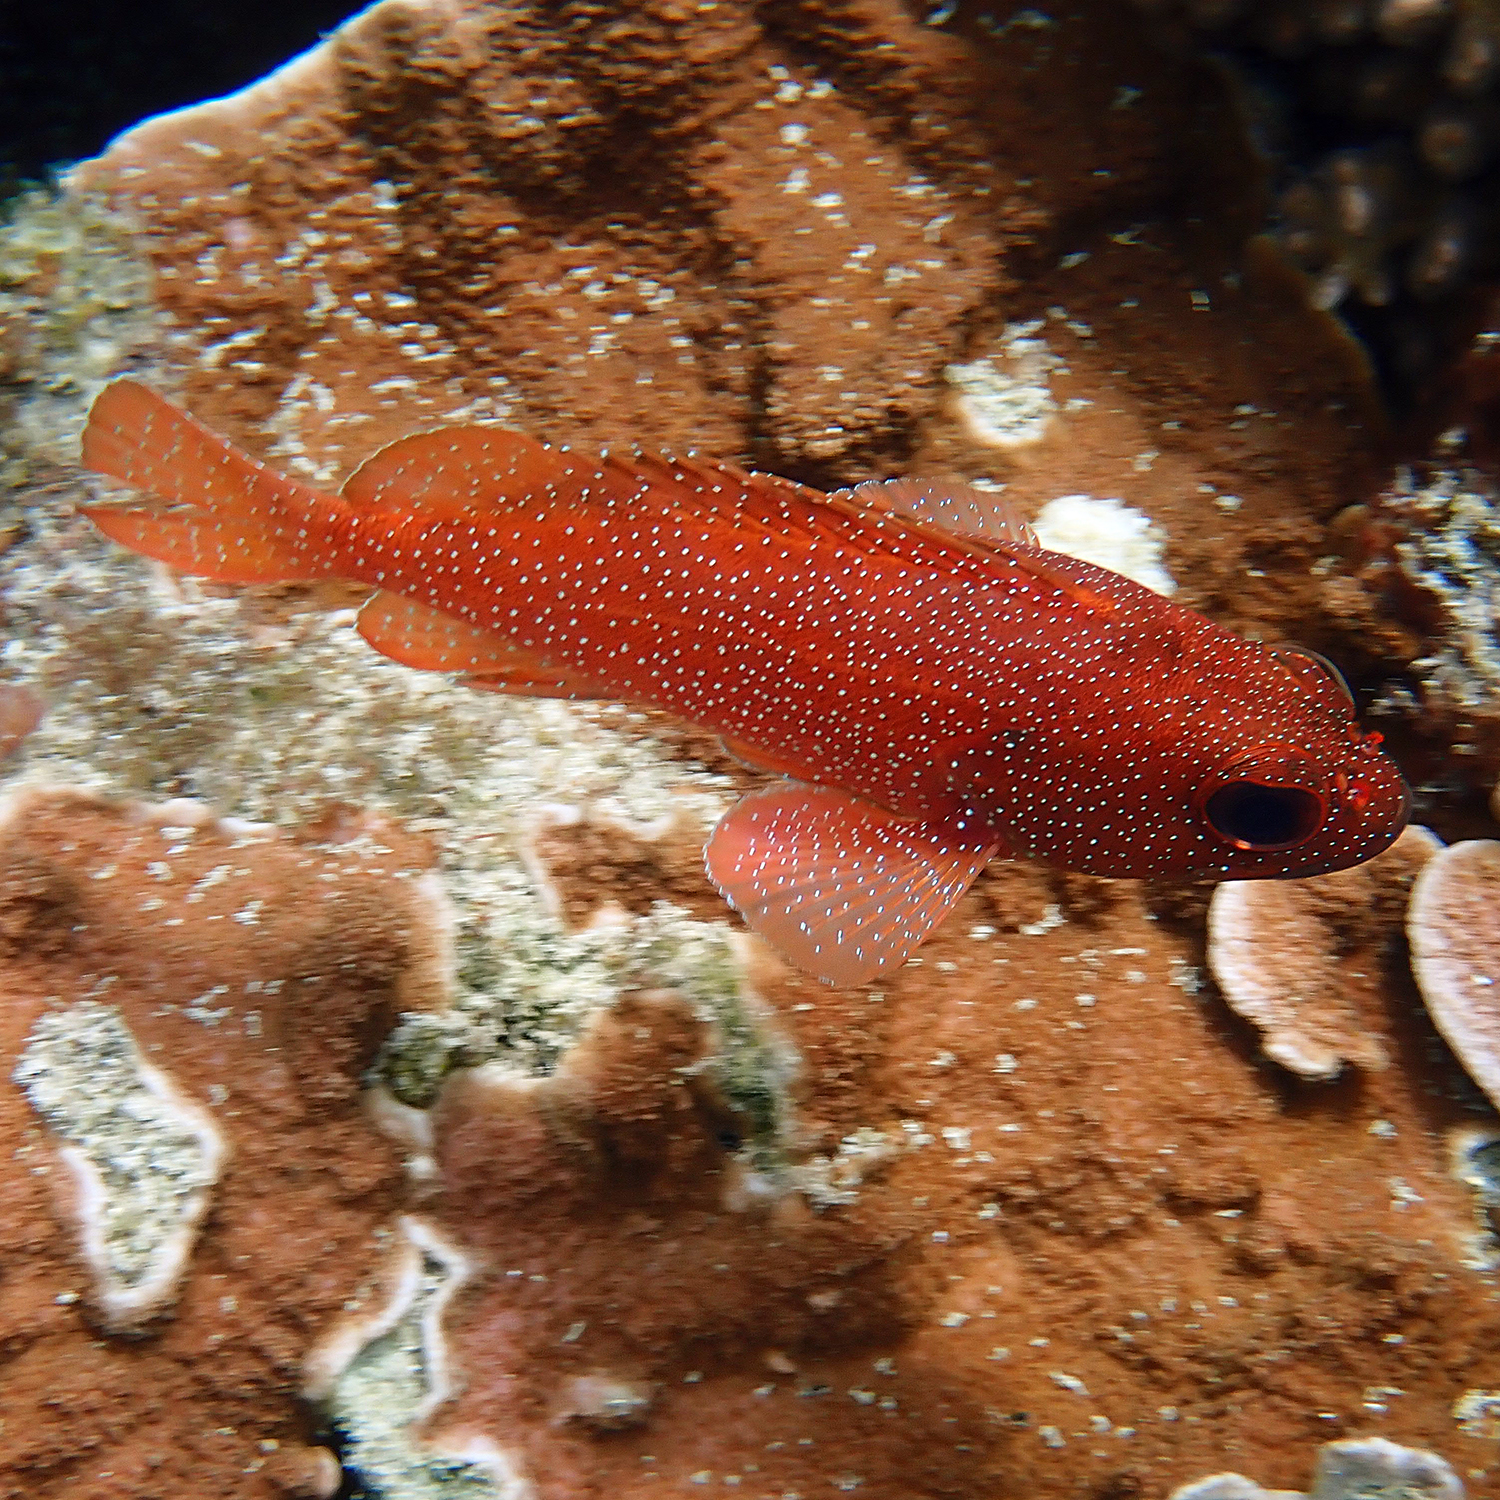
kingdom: Animalia
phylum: Chordata
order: Perciformes
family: Serranidae
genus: Trachypoma
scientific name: Trachypoma macracanthus
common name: Toadstool grouper
